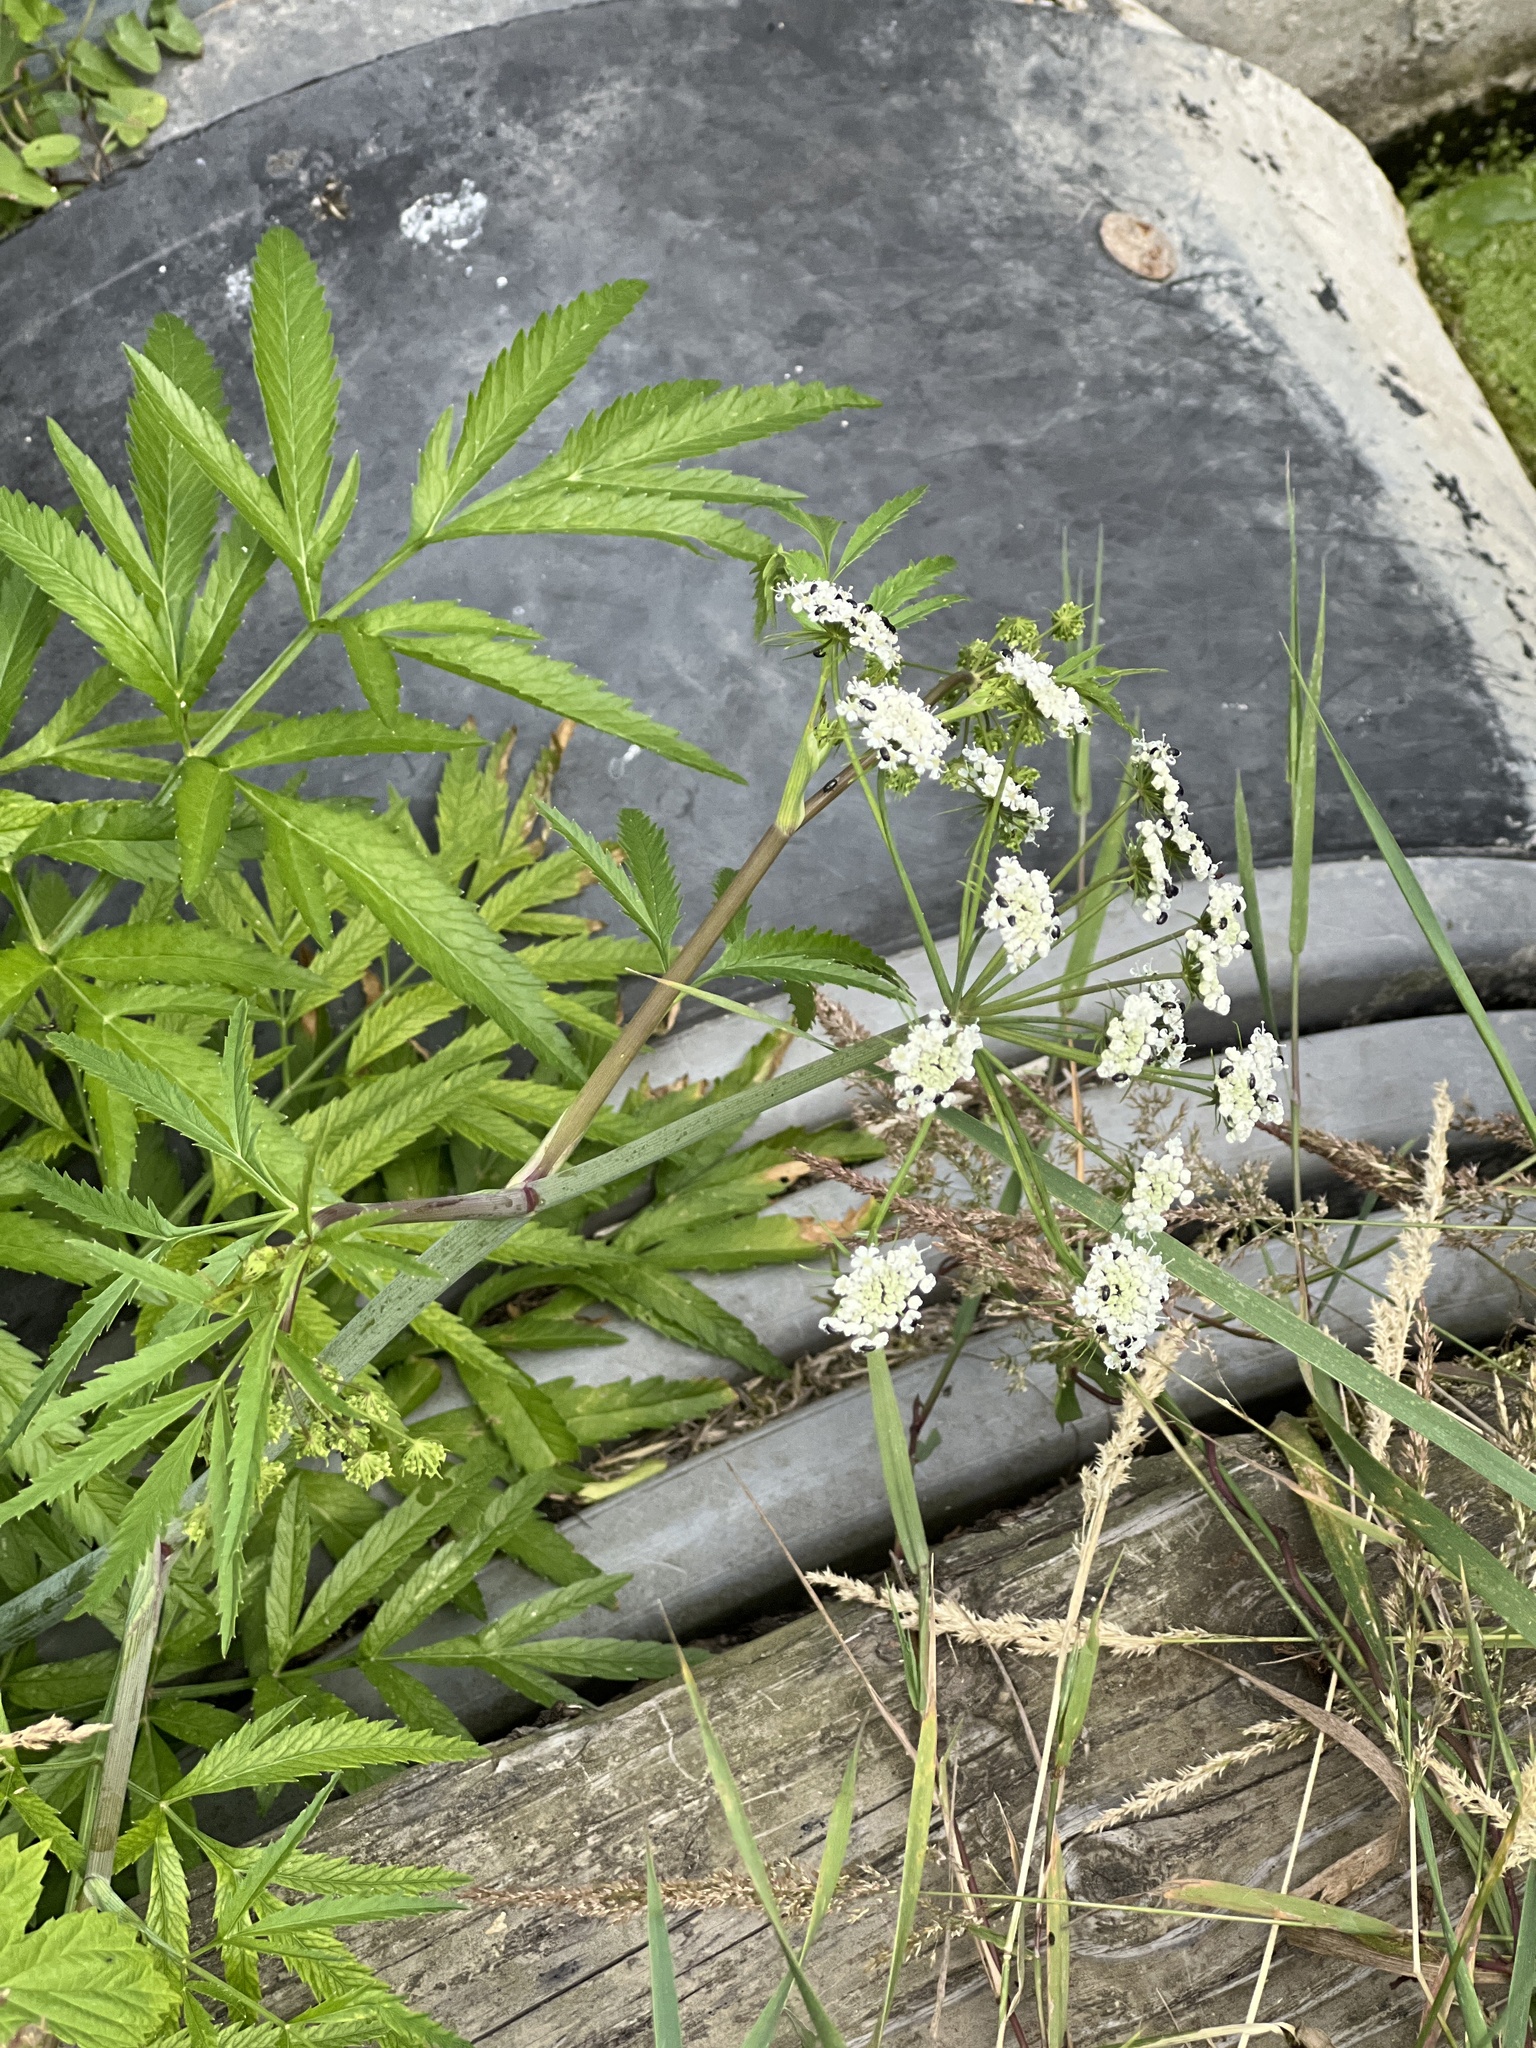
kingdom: Plantae
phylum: Tracheophyta
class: Magnoliopsida
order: Apiales
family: Apiaceae
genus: Cicuta
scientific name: Cicuta virosa
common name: Cowbane
